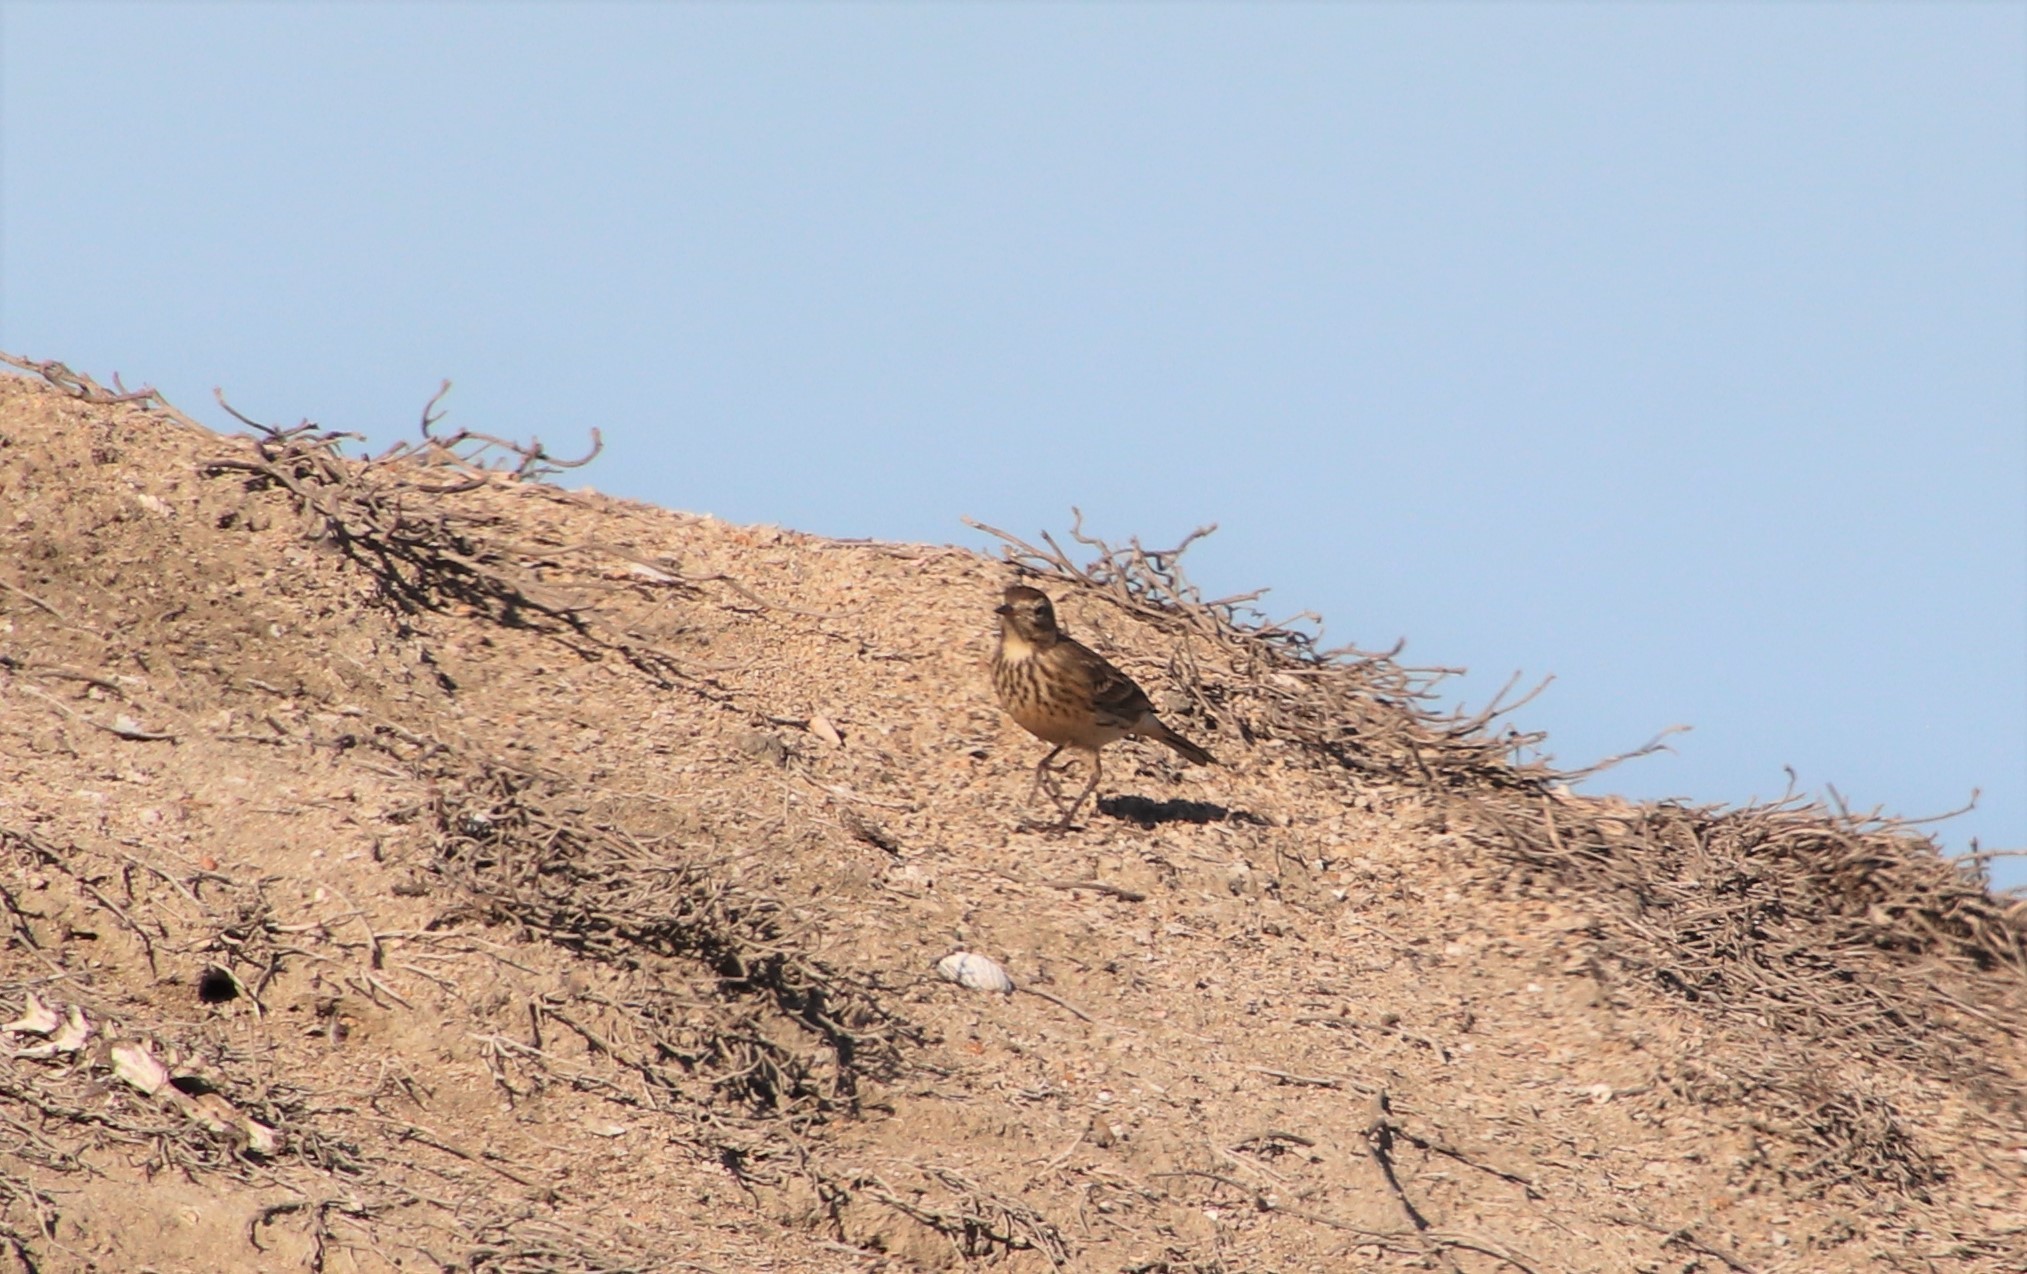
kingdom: Animalia
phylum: Chordata
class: Aves
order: Passeriformes
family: Motacillidae
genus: Anthus
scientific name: Anthus rubescens
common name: Buff-bellied pipit
